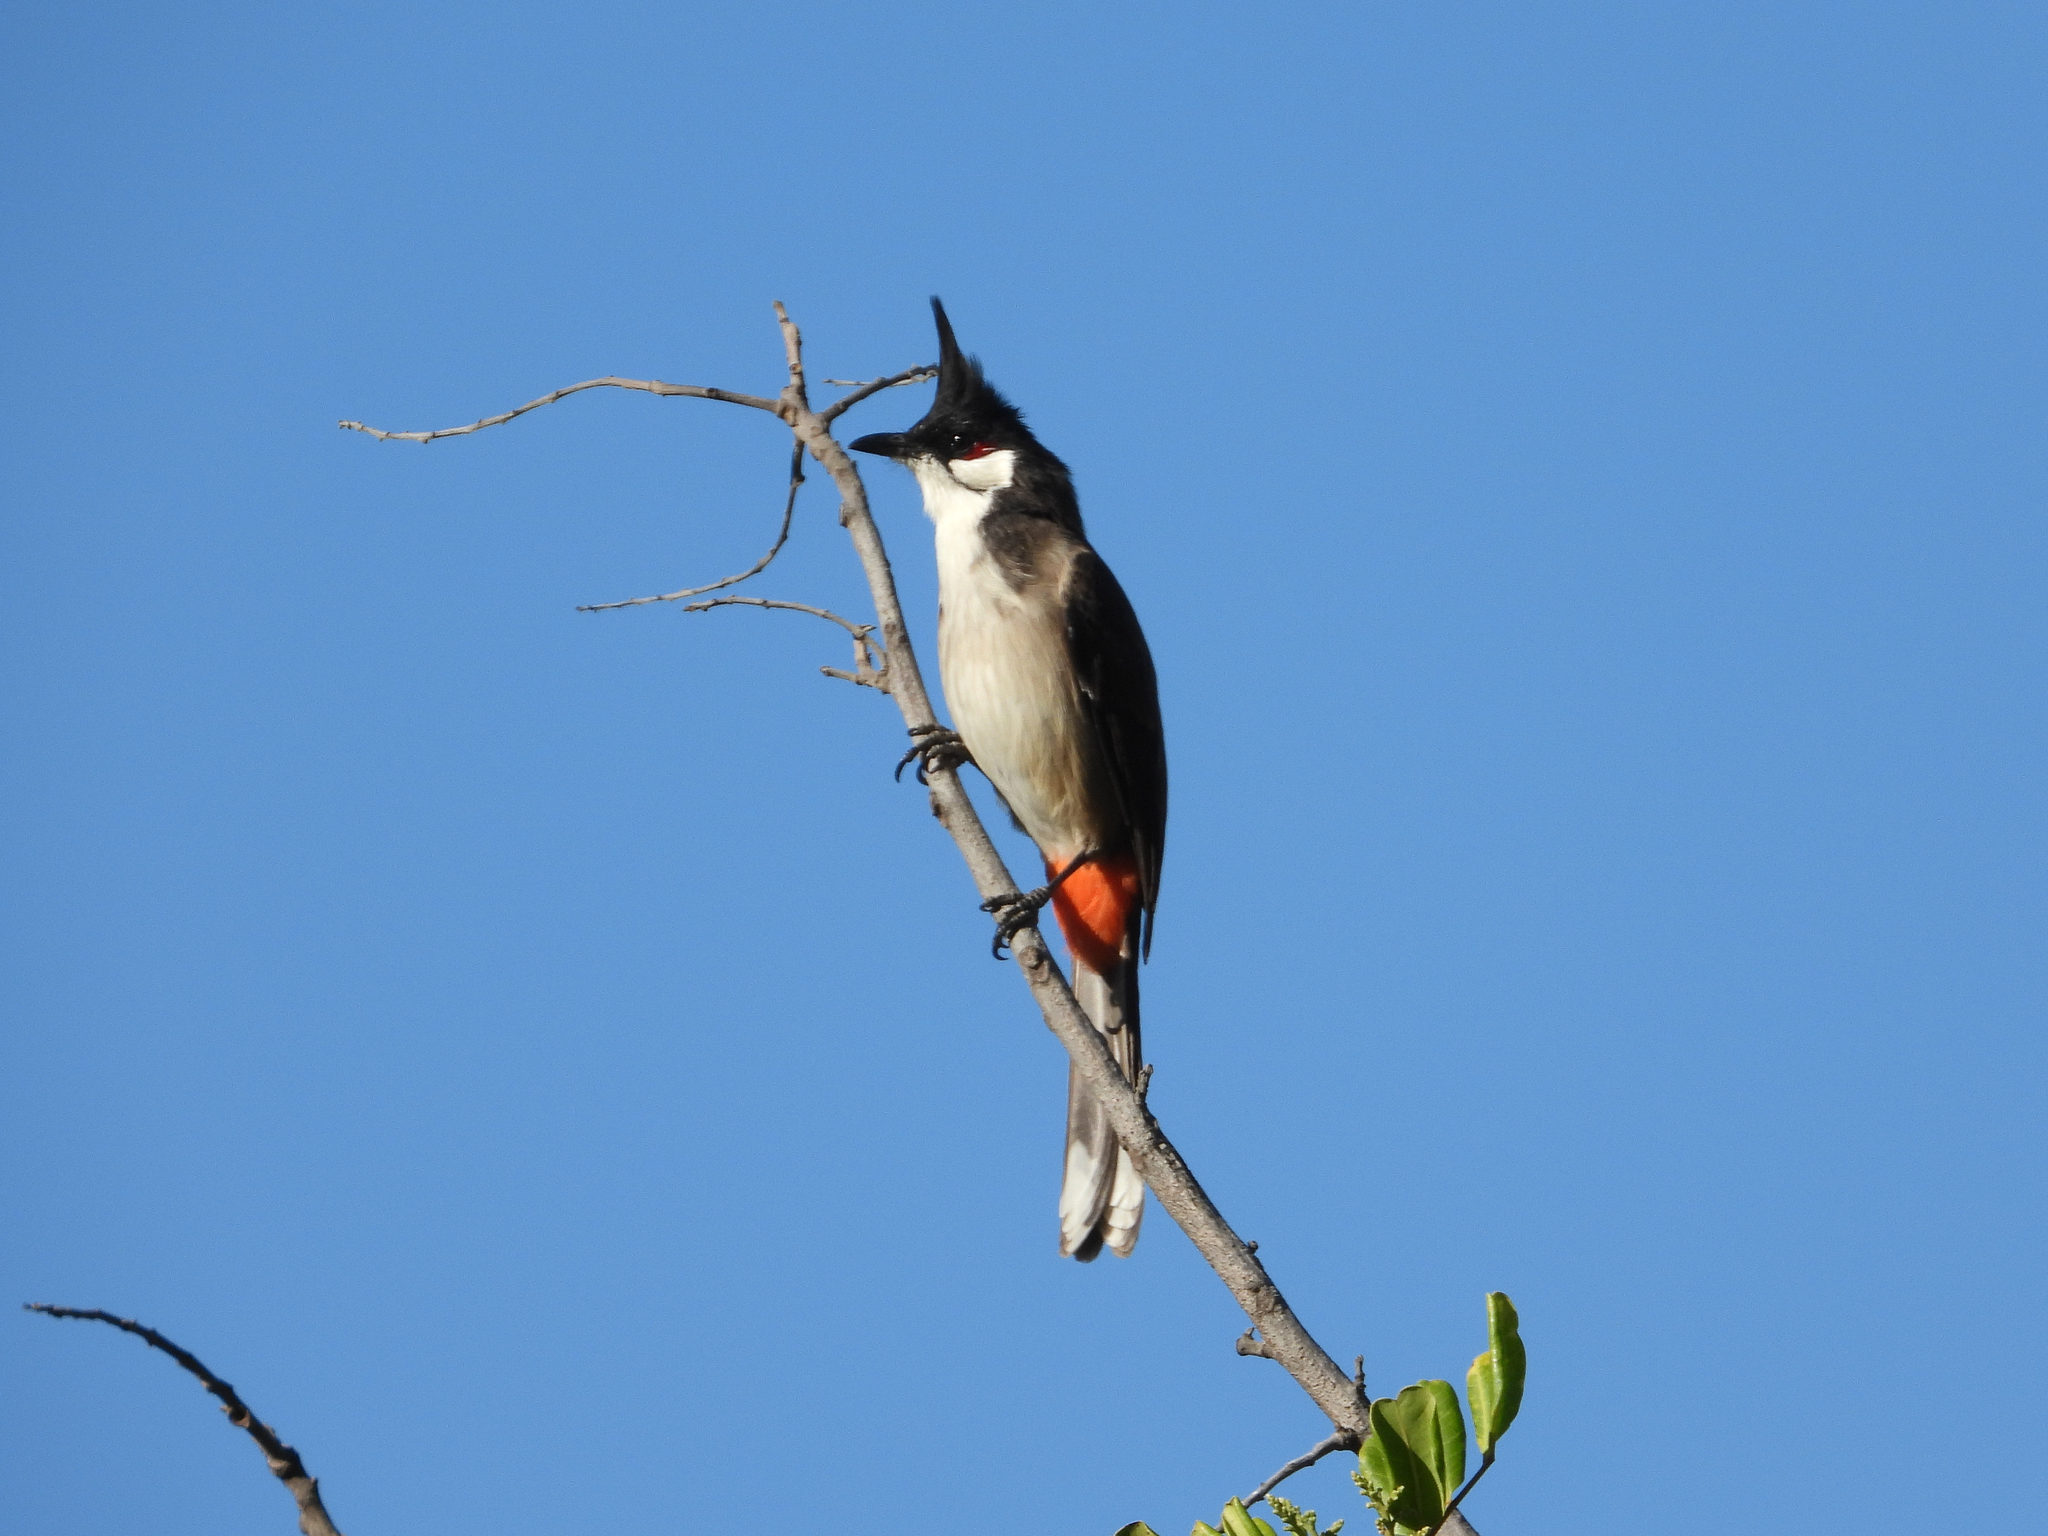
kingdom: Animalia
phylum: Chordata
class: Aves
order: Passeriformes
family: Pycnonotidae
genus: Pycnonotus
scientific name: Pycnonotus jocosus
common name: Red-whiskered bulbul
